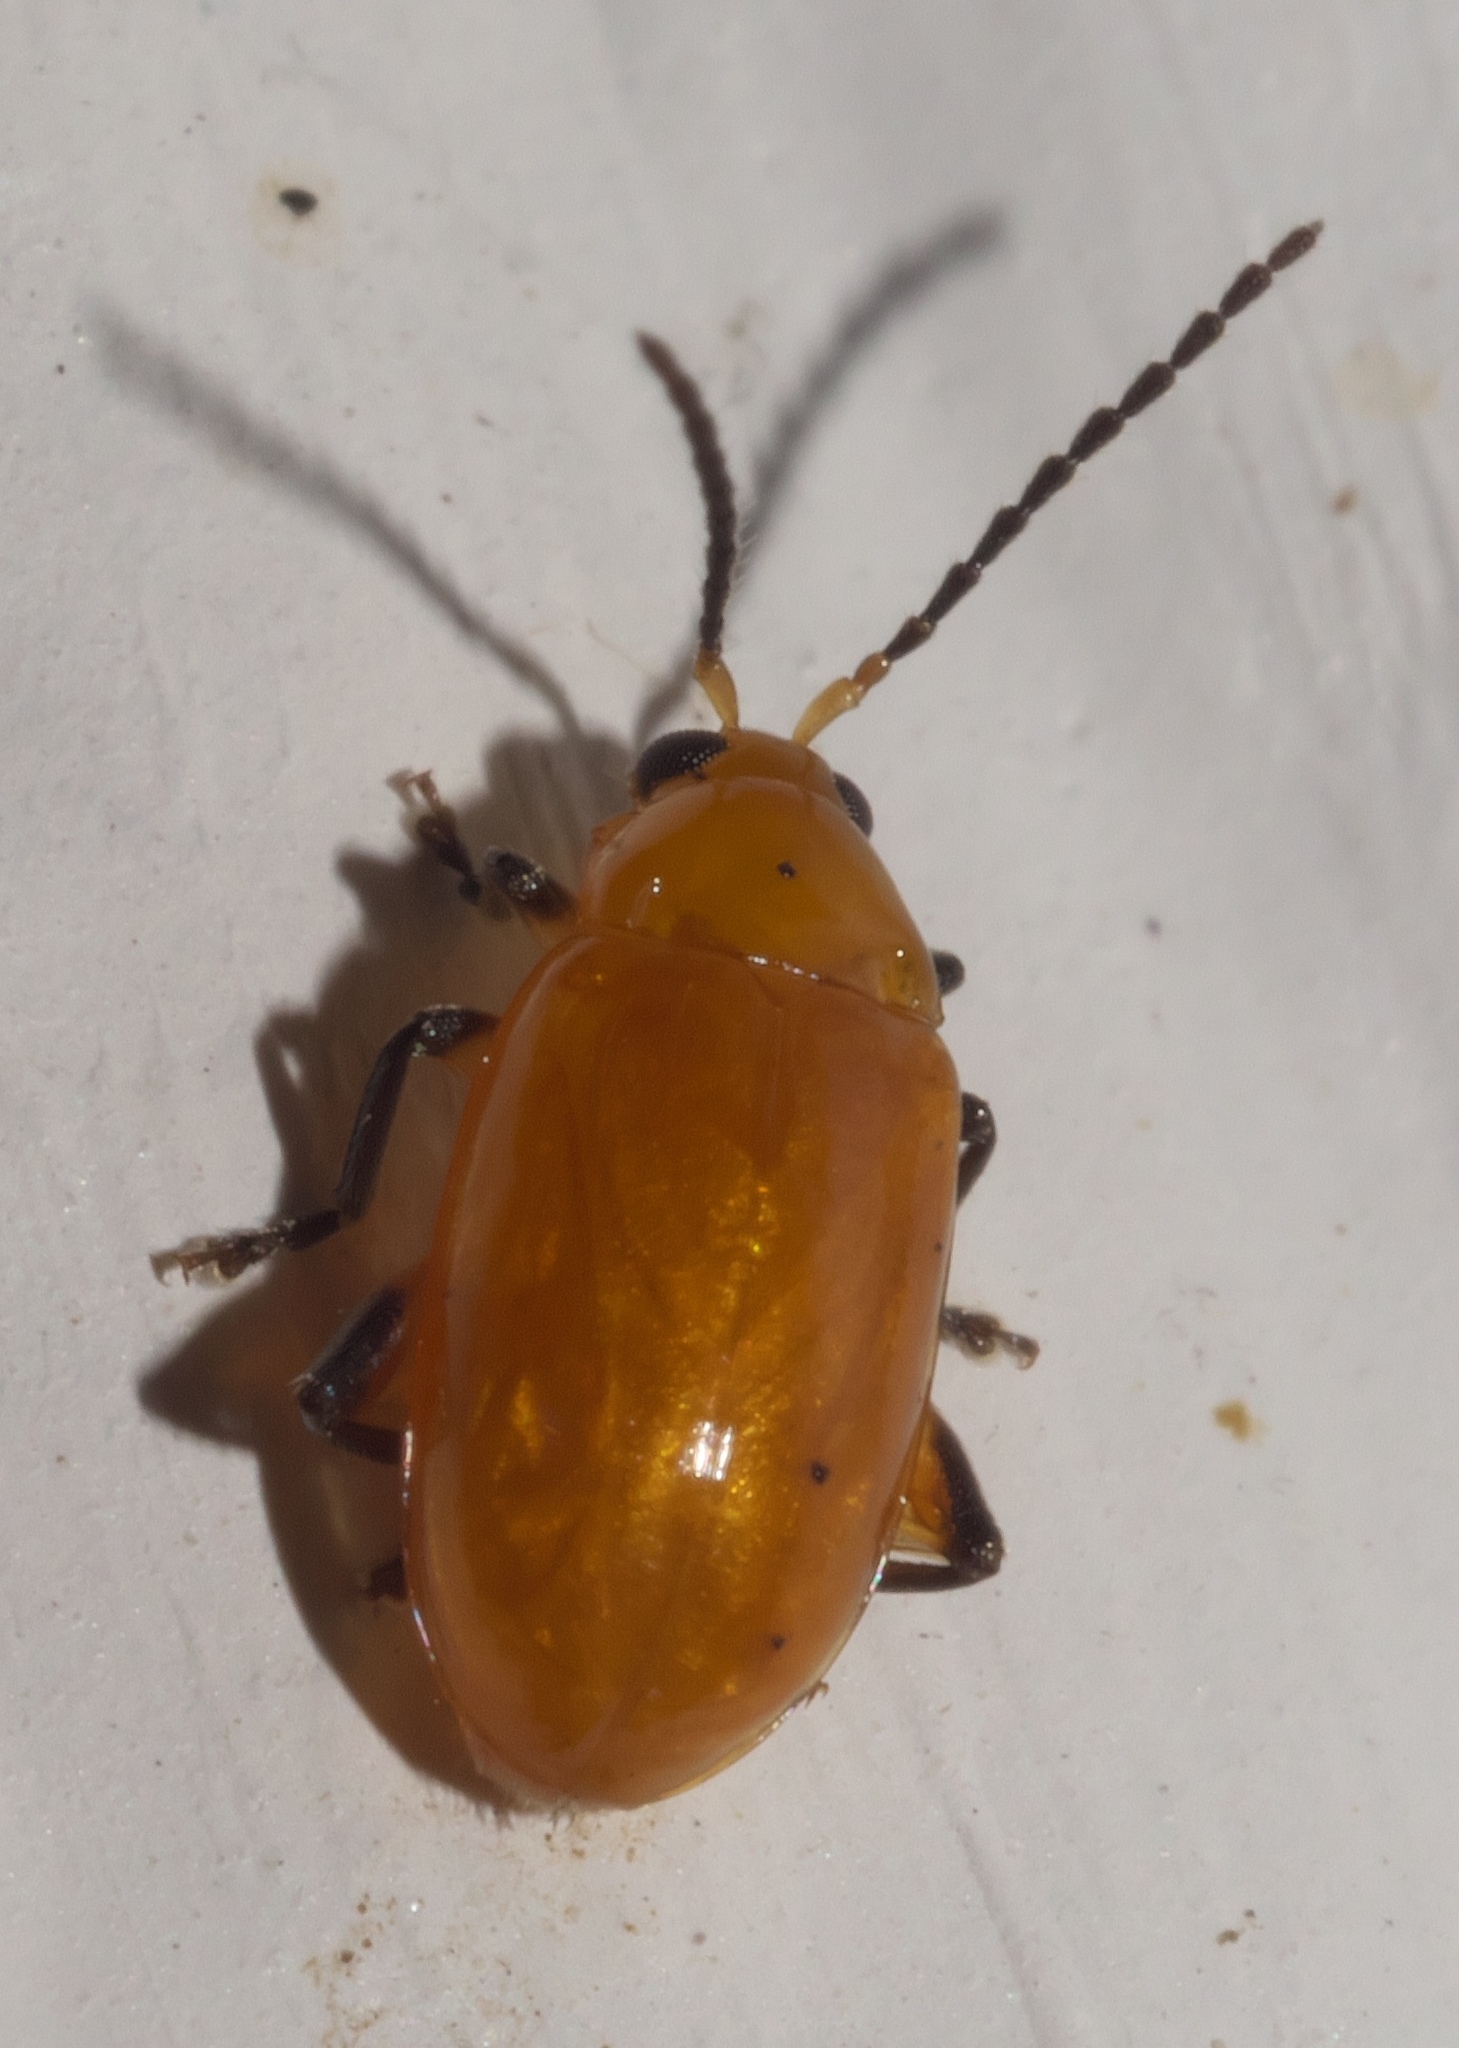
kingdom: Animalia
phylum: Arthropoda
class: Insecta
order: Coleoptera
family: Chrysomelidae
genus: Parchicola
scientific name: Parchicola tibialis
